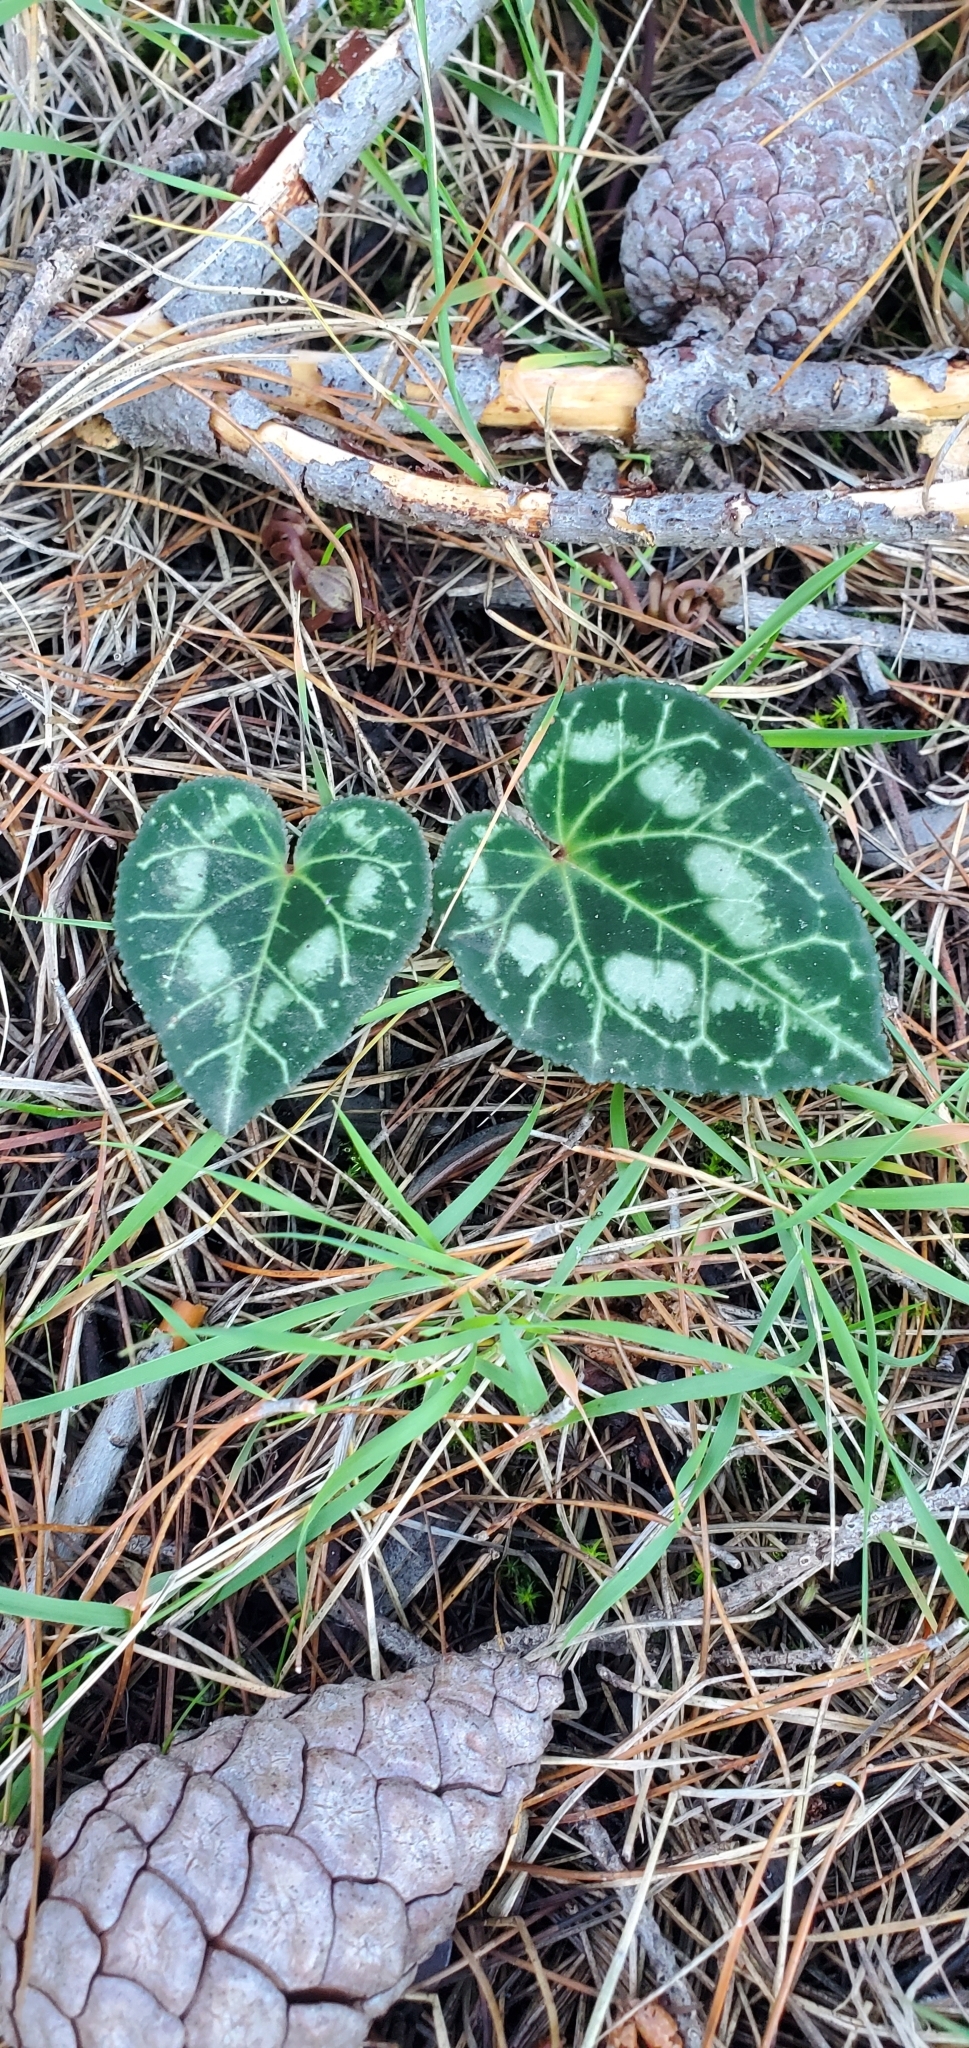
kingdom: Plantae
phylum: Tracheophyta
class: Magnoliopsida
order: Ericales
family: Primulaceae
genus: Cyclamen
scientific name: Cyclamen graecum
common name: Greek cyclamen
